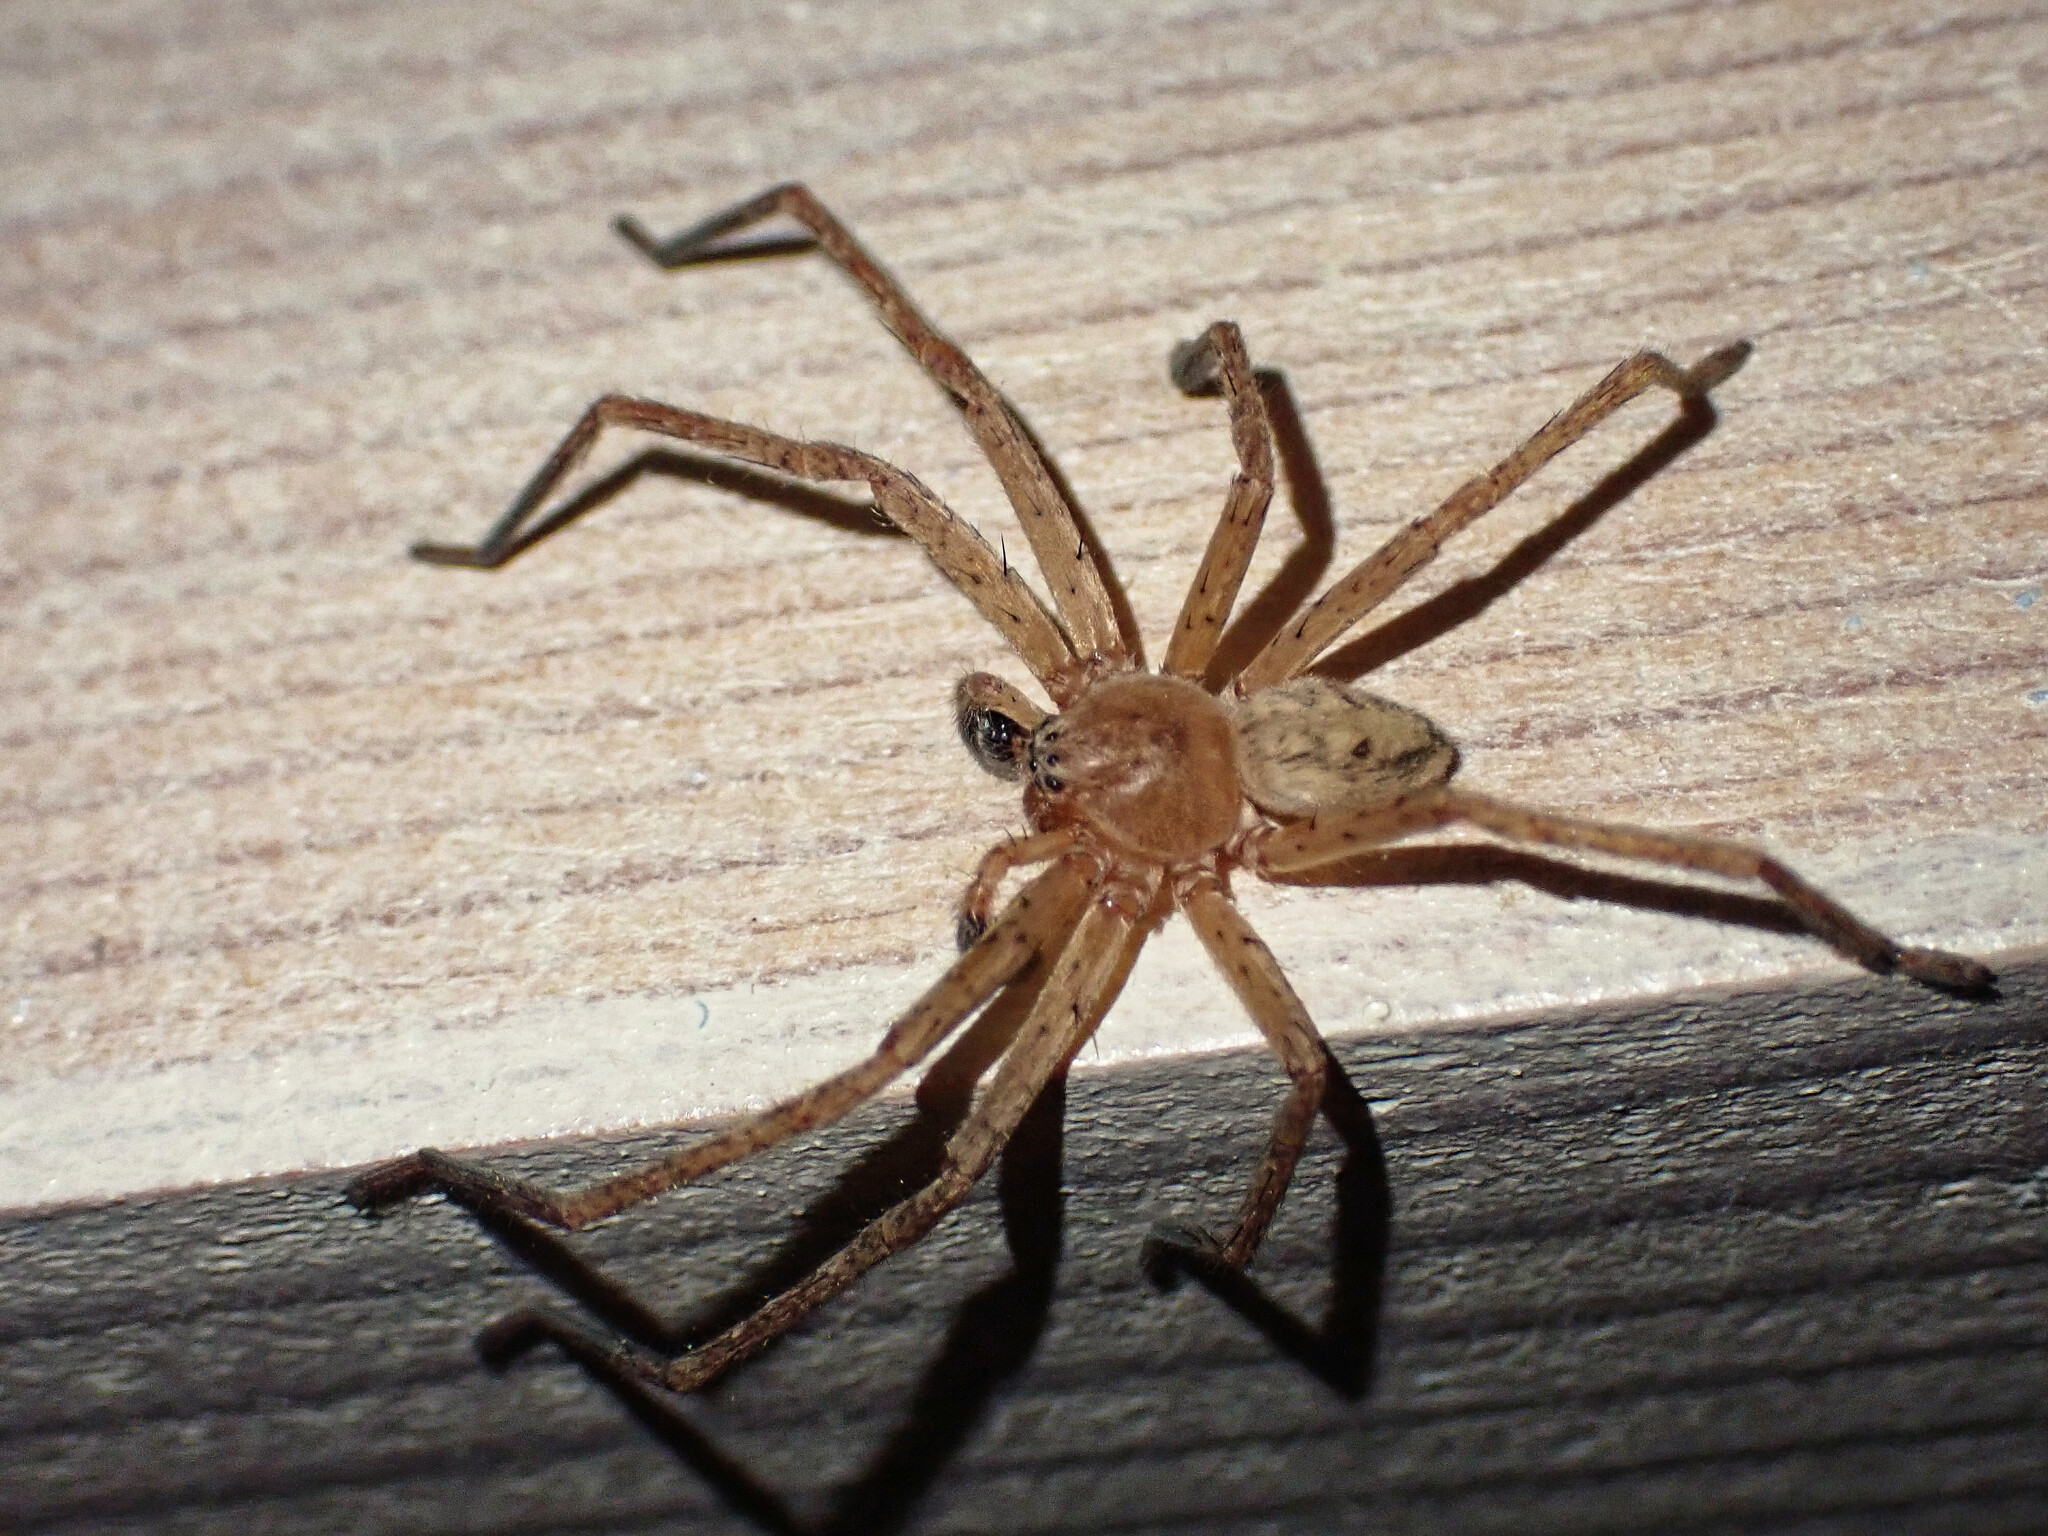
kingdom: Animalia
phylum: Arthropoda
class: Arachnida
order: Araneae
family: Sparassidae
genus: Olios
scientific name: Olios argelasius
